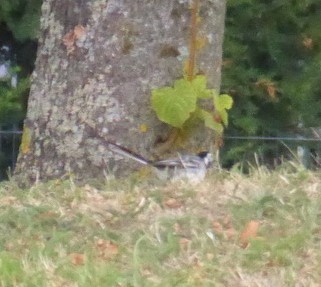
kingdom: Animalia
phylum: Chordata
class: Aves
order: Passeriformes
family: Motacillidae
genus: Motacilla
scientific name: Motacilla alba
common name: White wagtail
